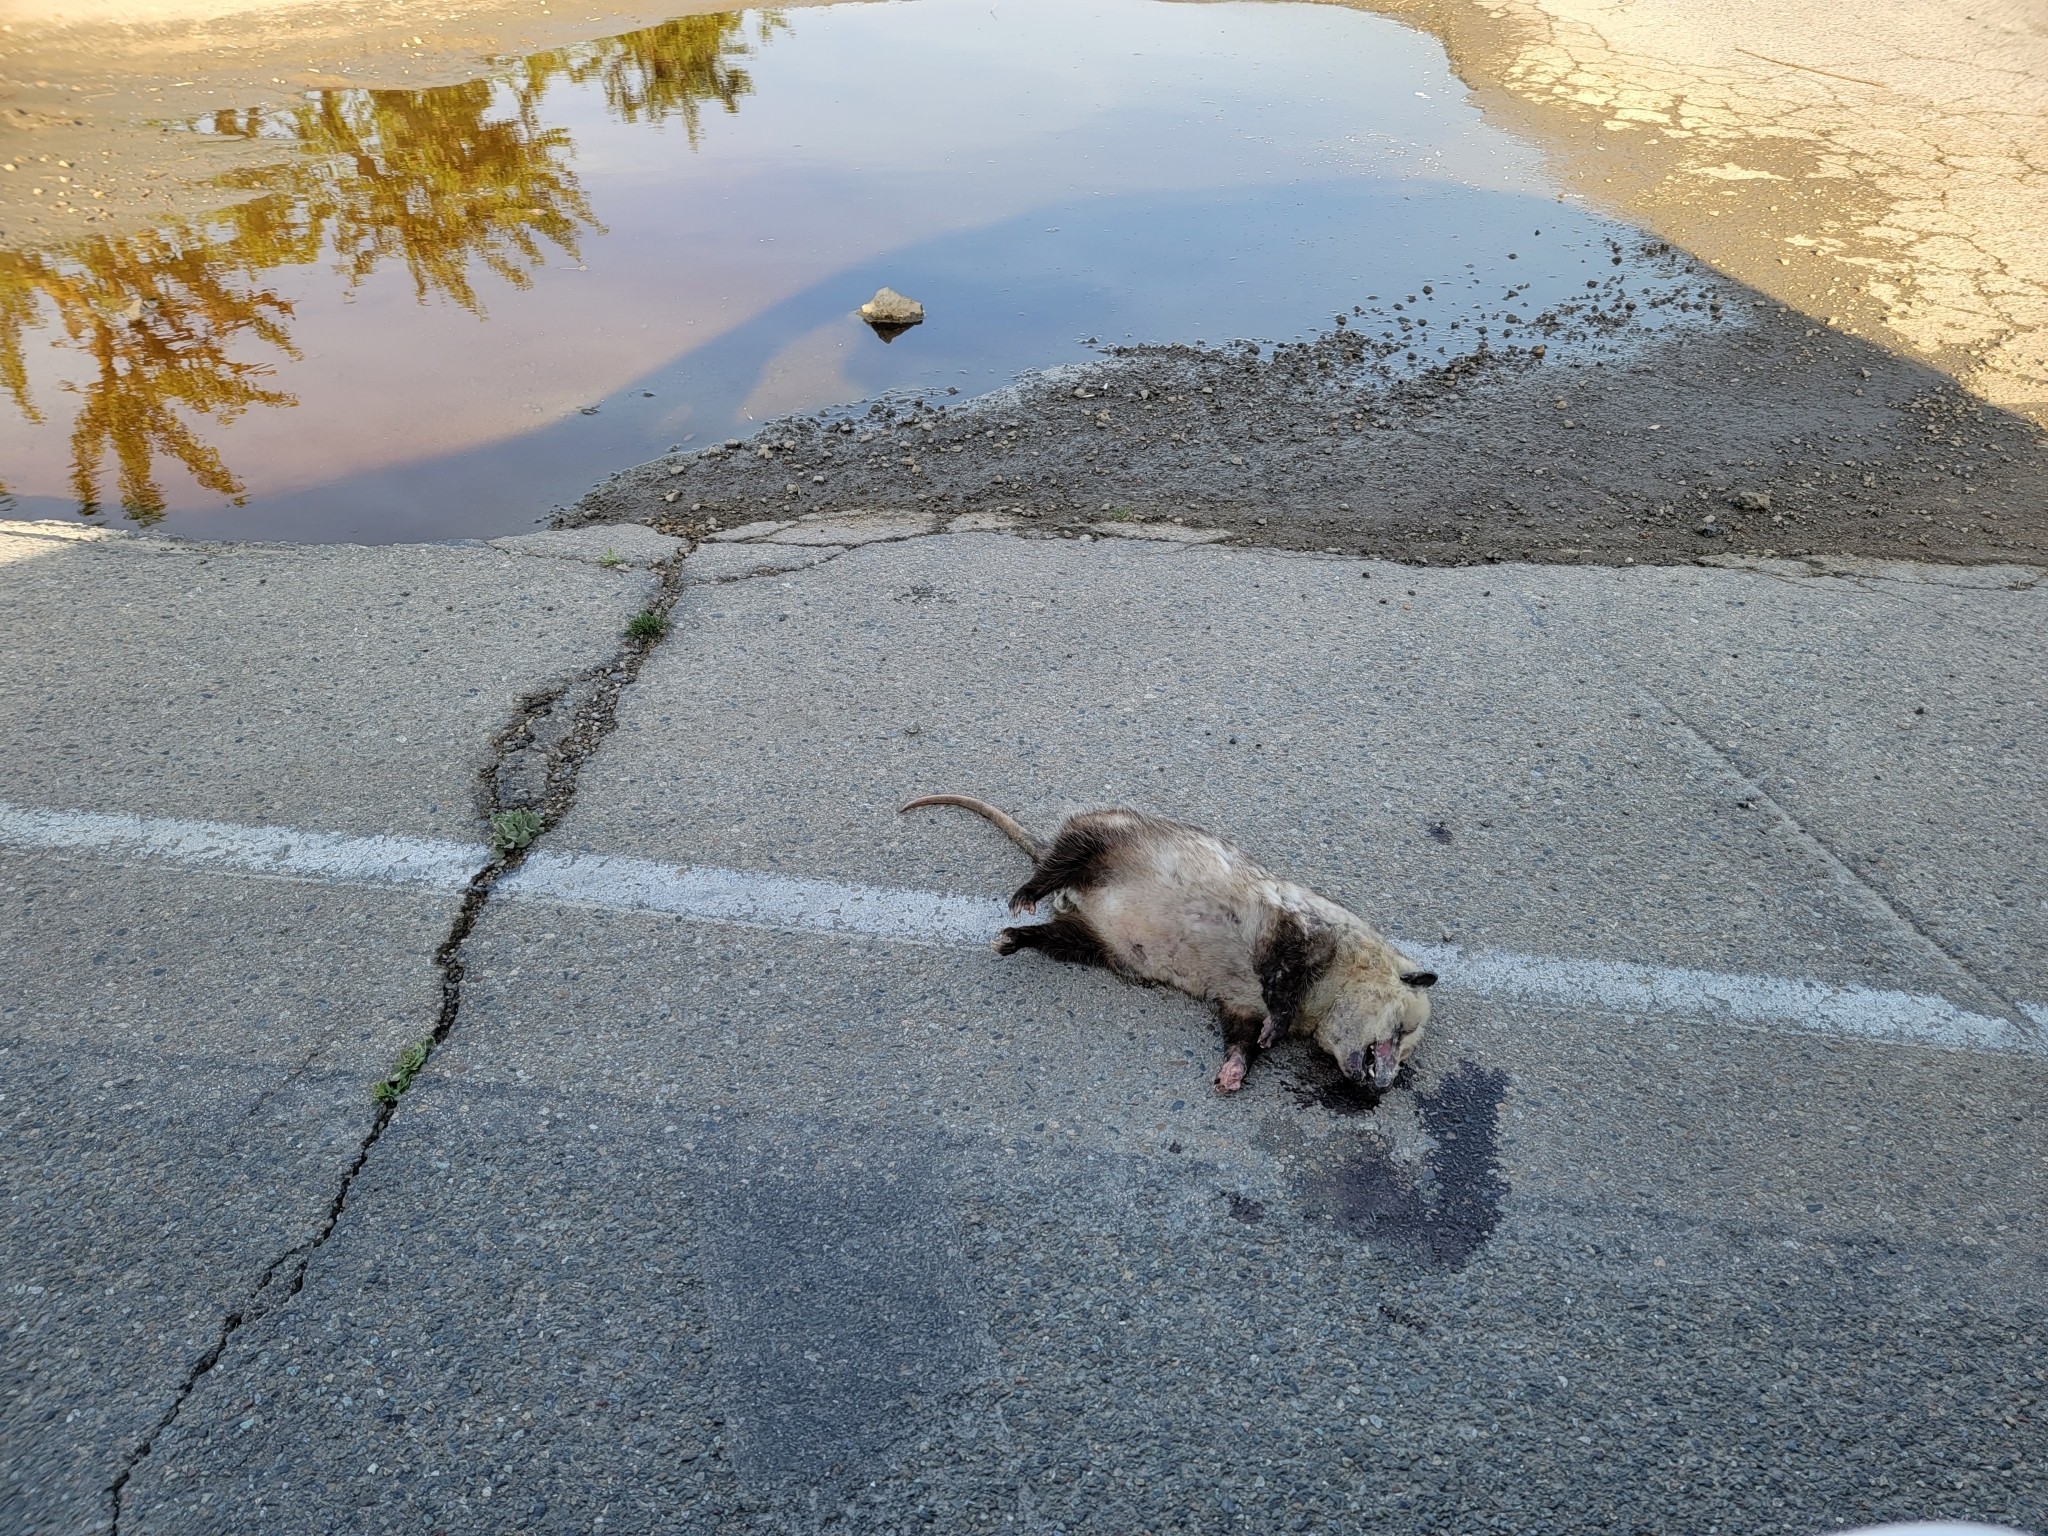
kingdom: Animalia
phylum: Chordata
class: Mammalia
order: Didelphimorphia
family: Didelphidae
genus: Didelphis
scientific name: Didelphis virginiana
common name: Virginia opossum
